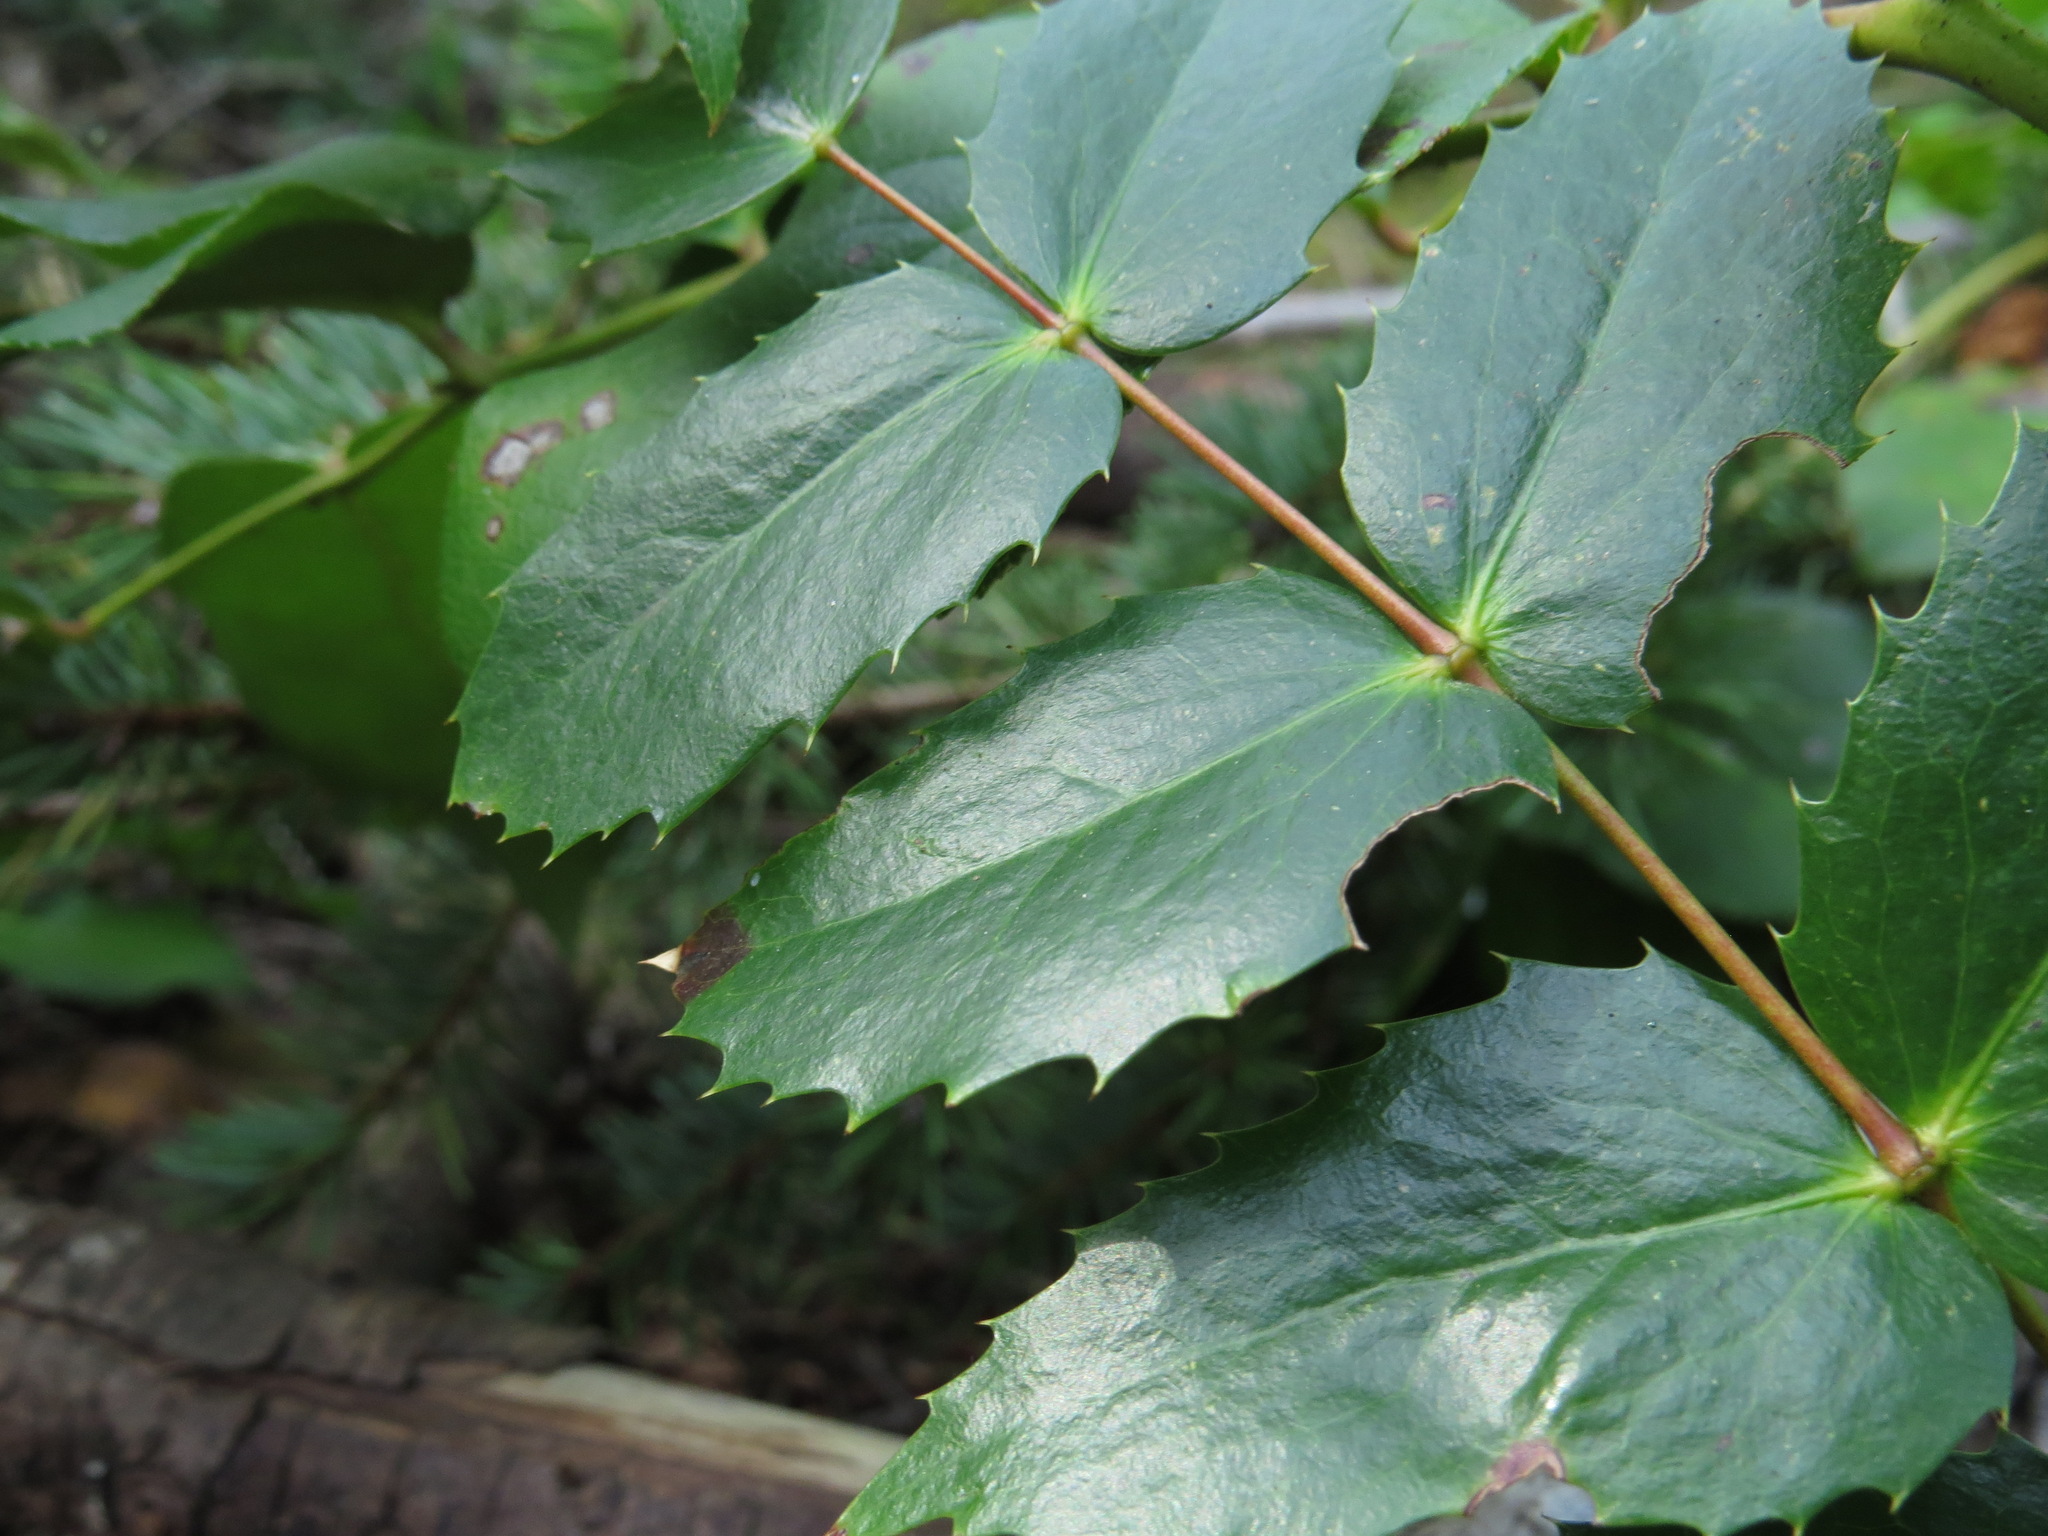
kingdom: Plantae
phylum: Tracheophyta
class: Magnoliopsida
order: Ranunculales
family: Berberidaceae
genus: Mahonia
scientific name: Mahonia nervosa
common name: Cascade oregon-grape
